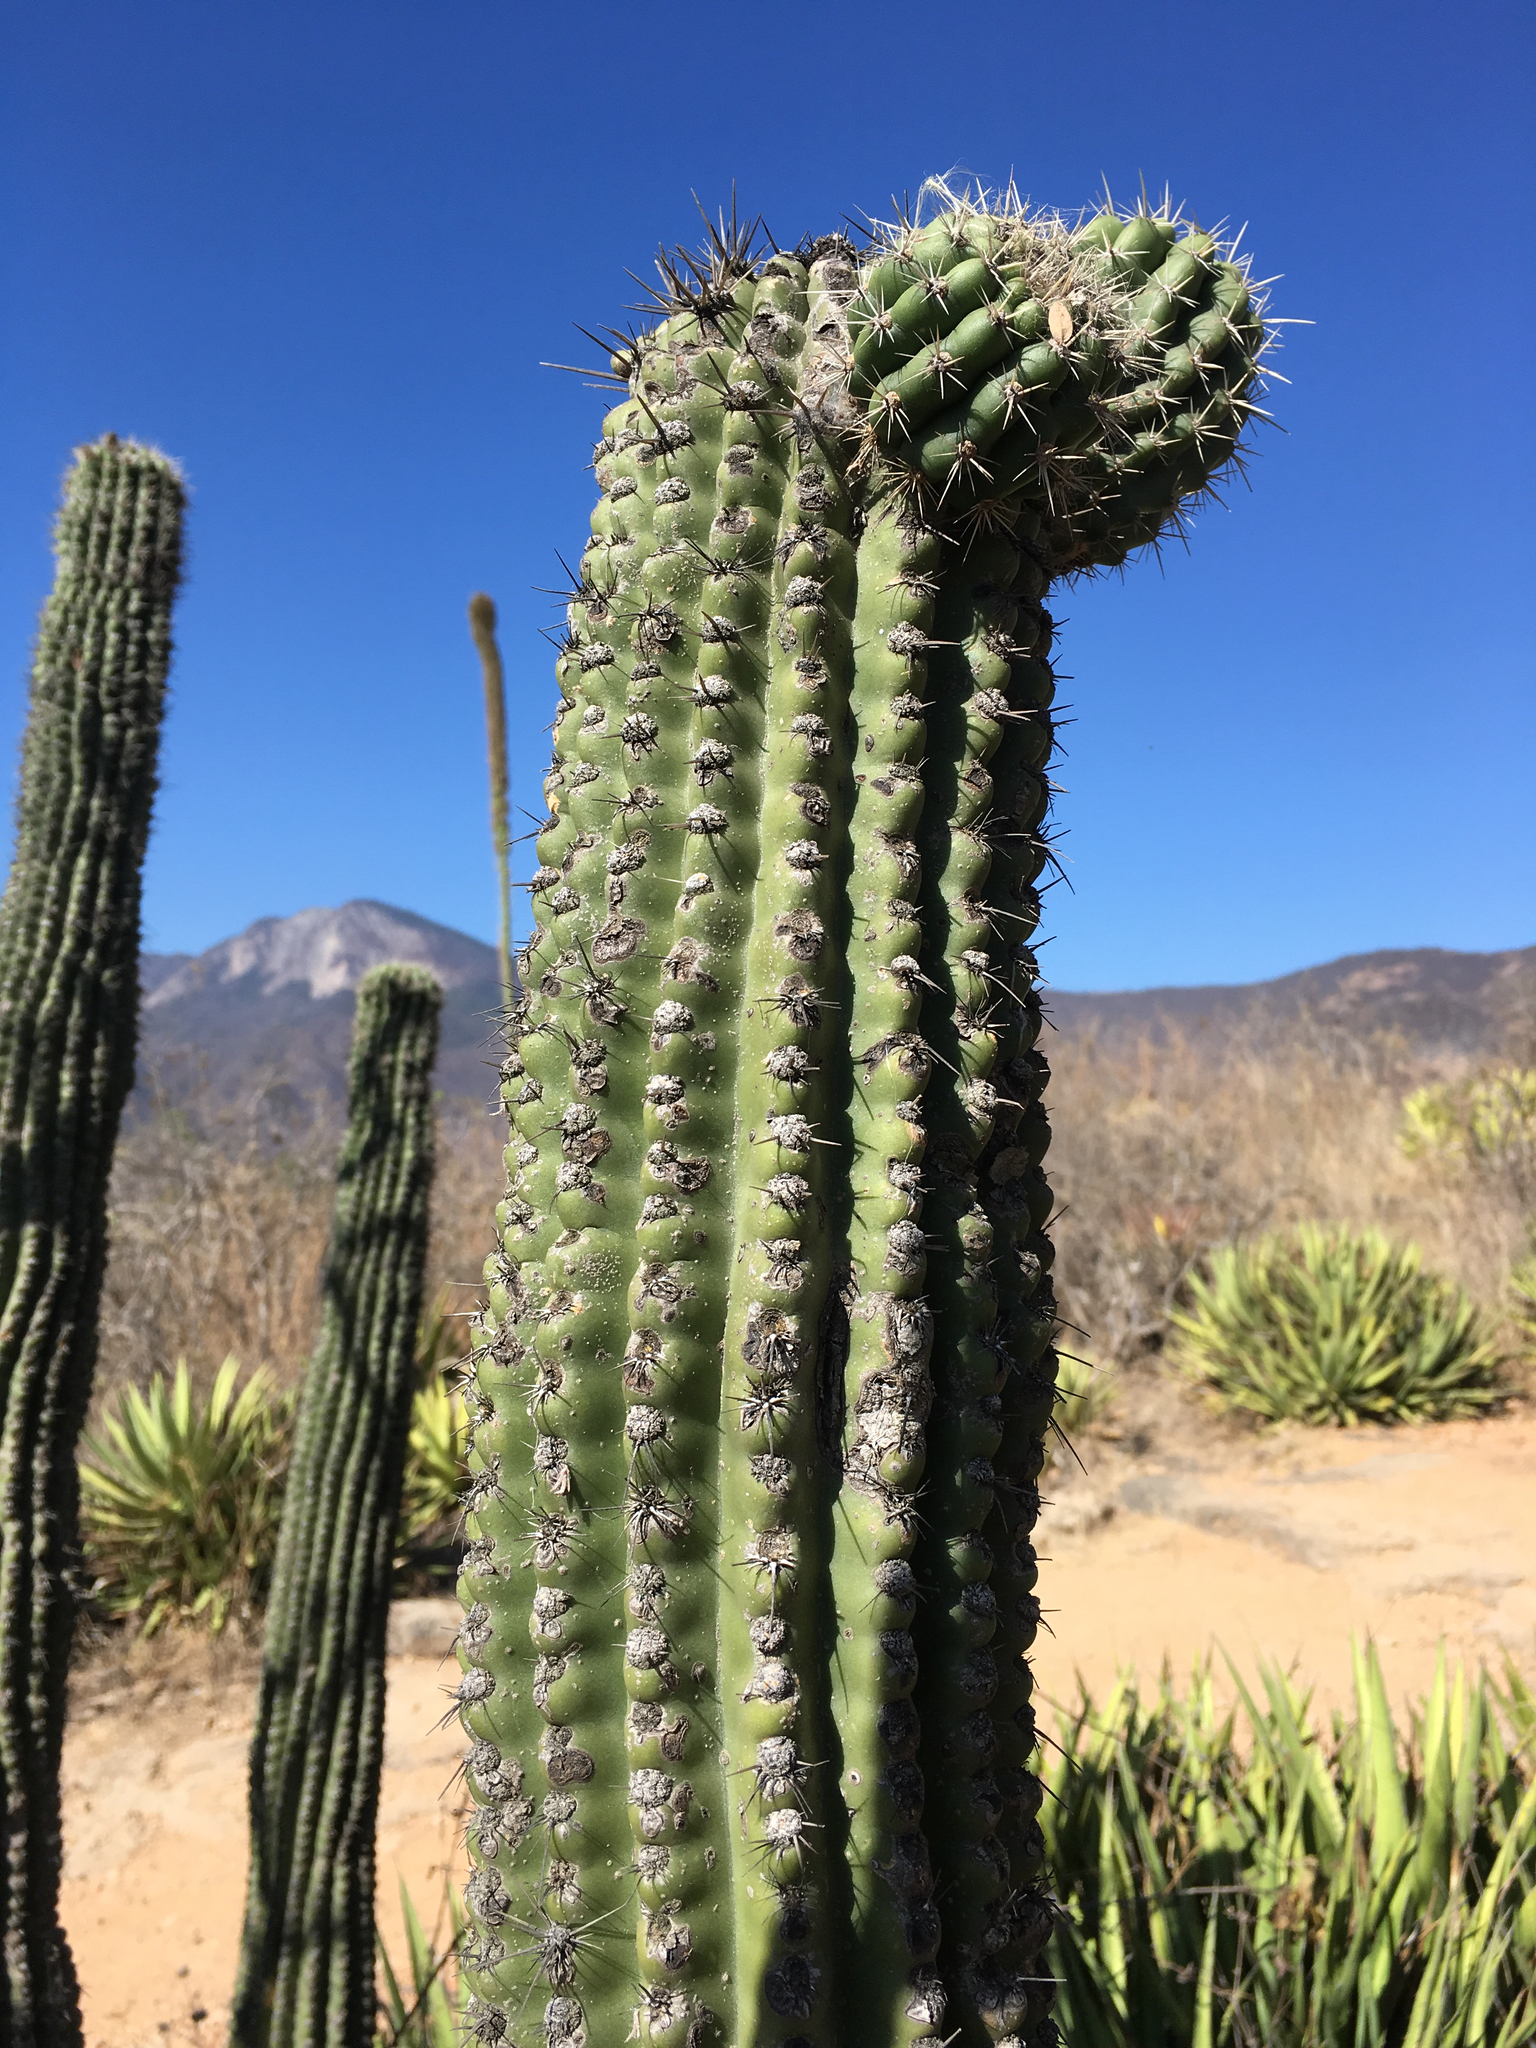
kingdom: Plantae
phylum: Tracheophyta
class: Magnoliopsida
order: Caryophyllales
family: Cactaceae
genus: Stenocereus
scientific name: Stenocereus treleasei
